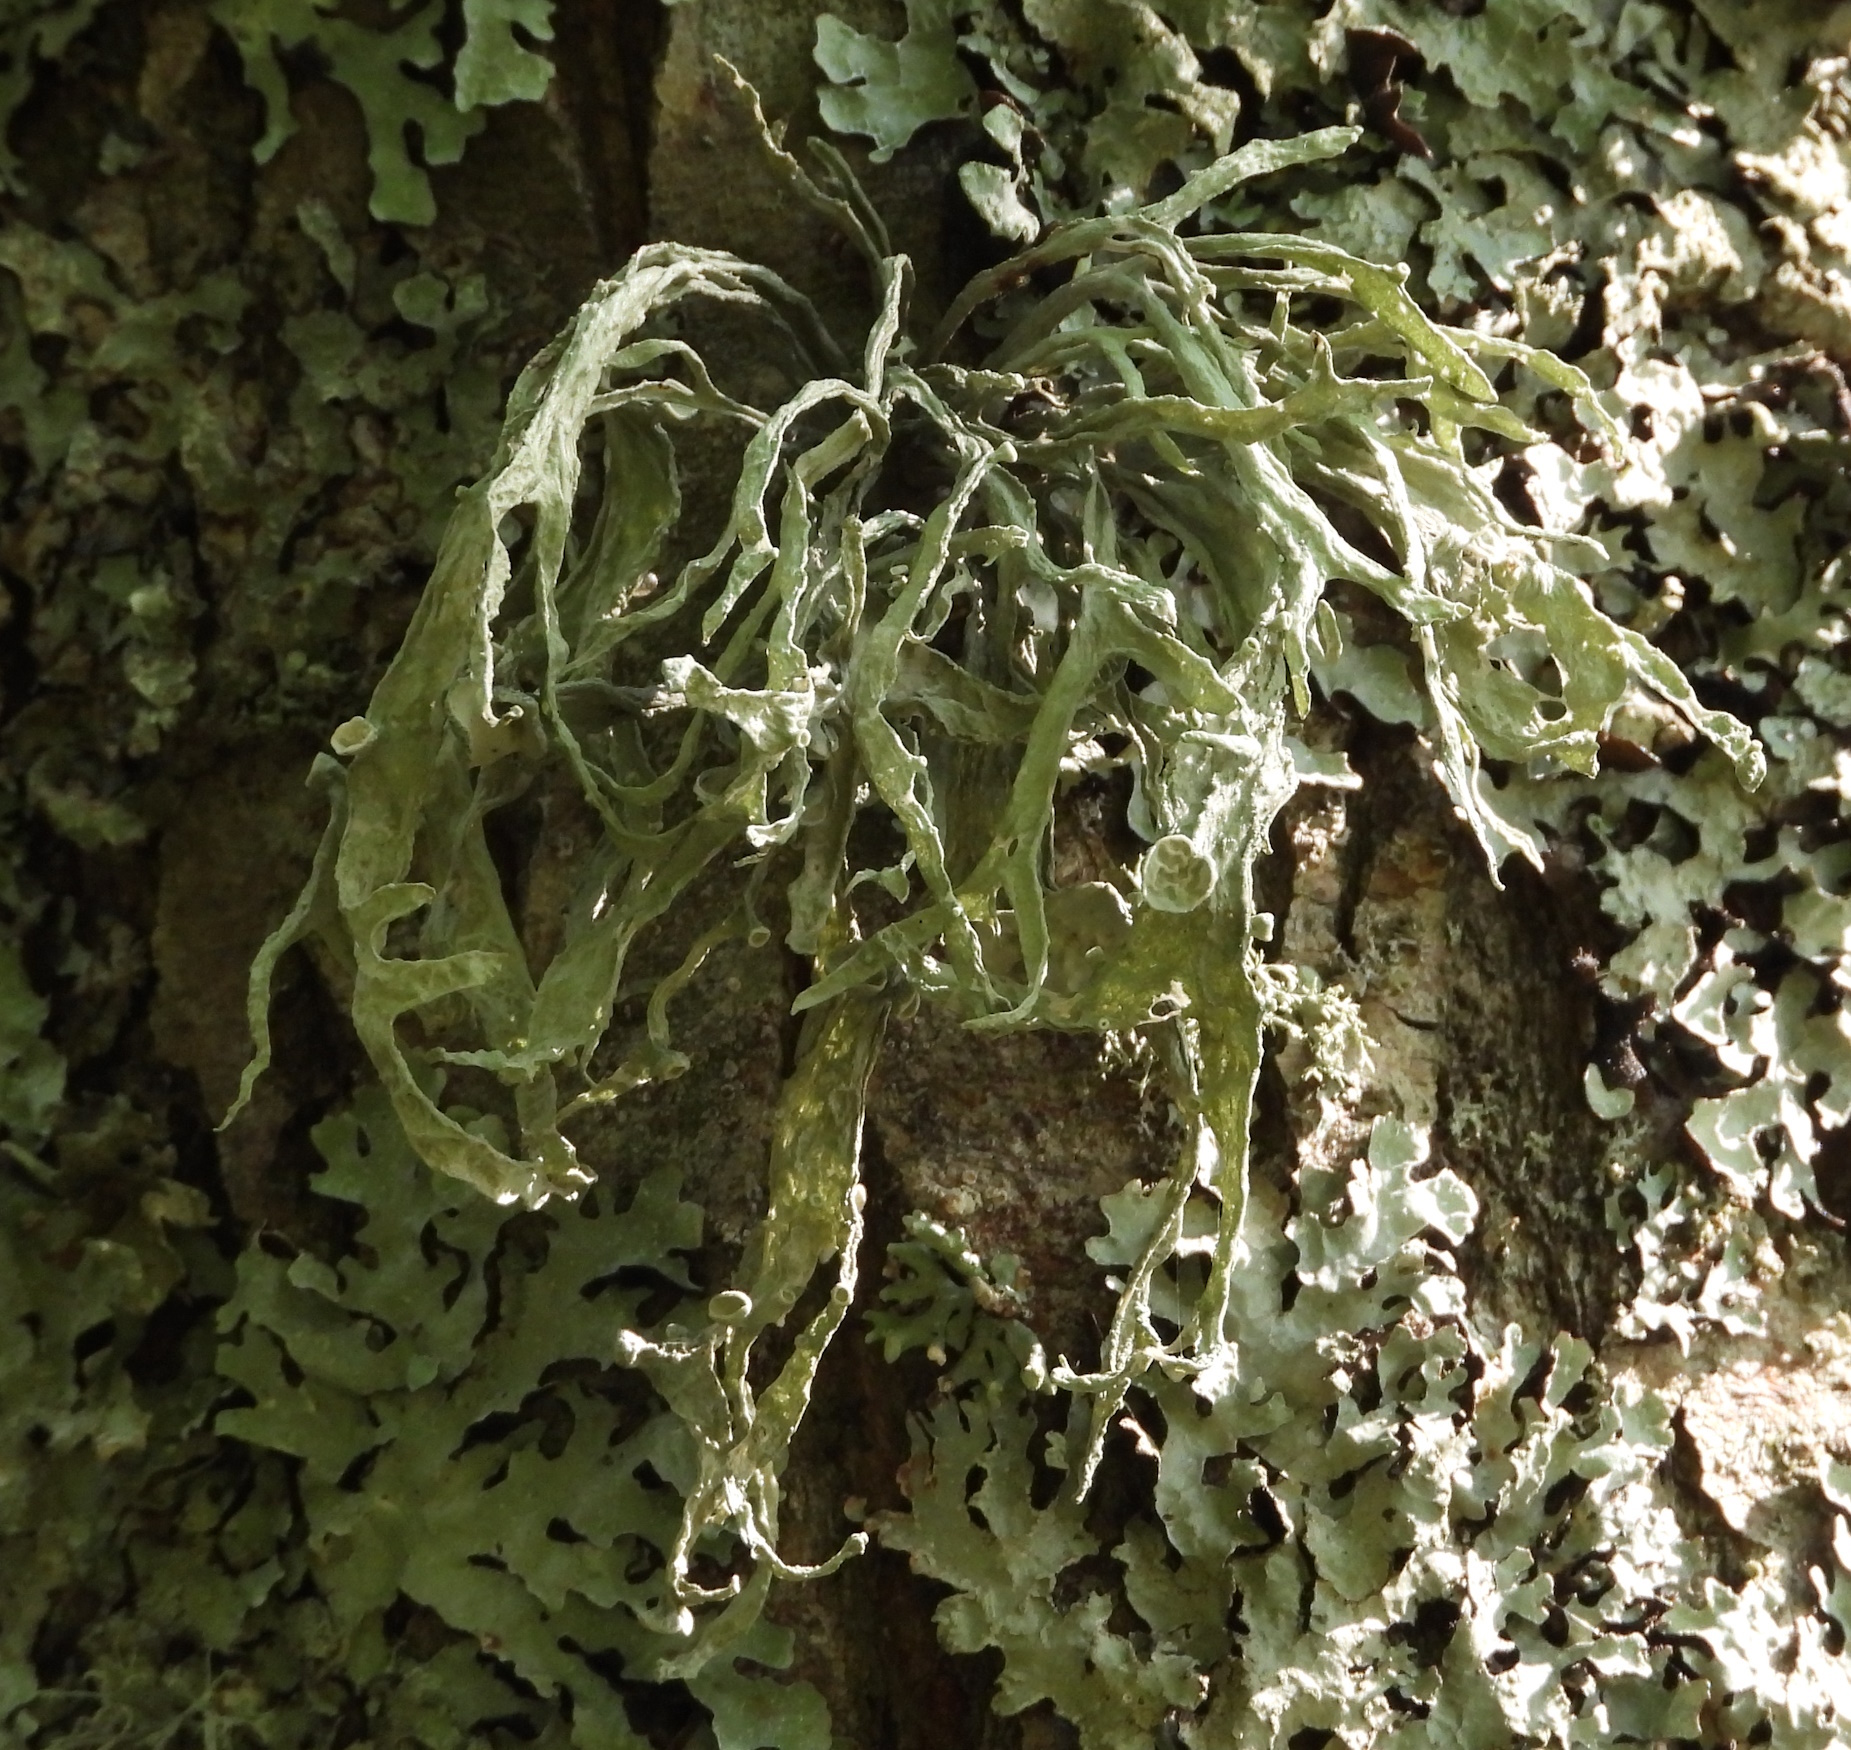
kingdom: Fungi
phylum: Ascomycota
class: Lecanoromycetes
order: Lecanorales
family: Ramalinaceae
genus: Ramalina
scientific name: Ramalina fraxinea
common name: Cartilage lichen
